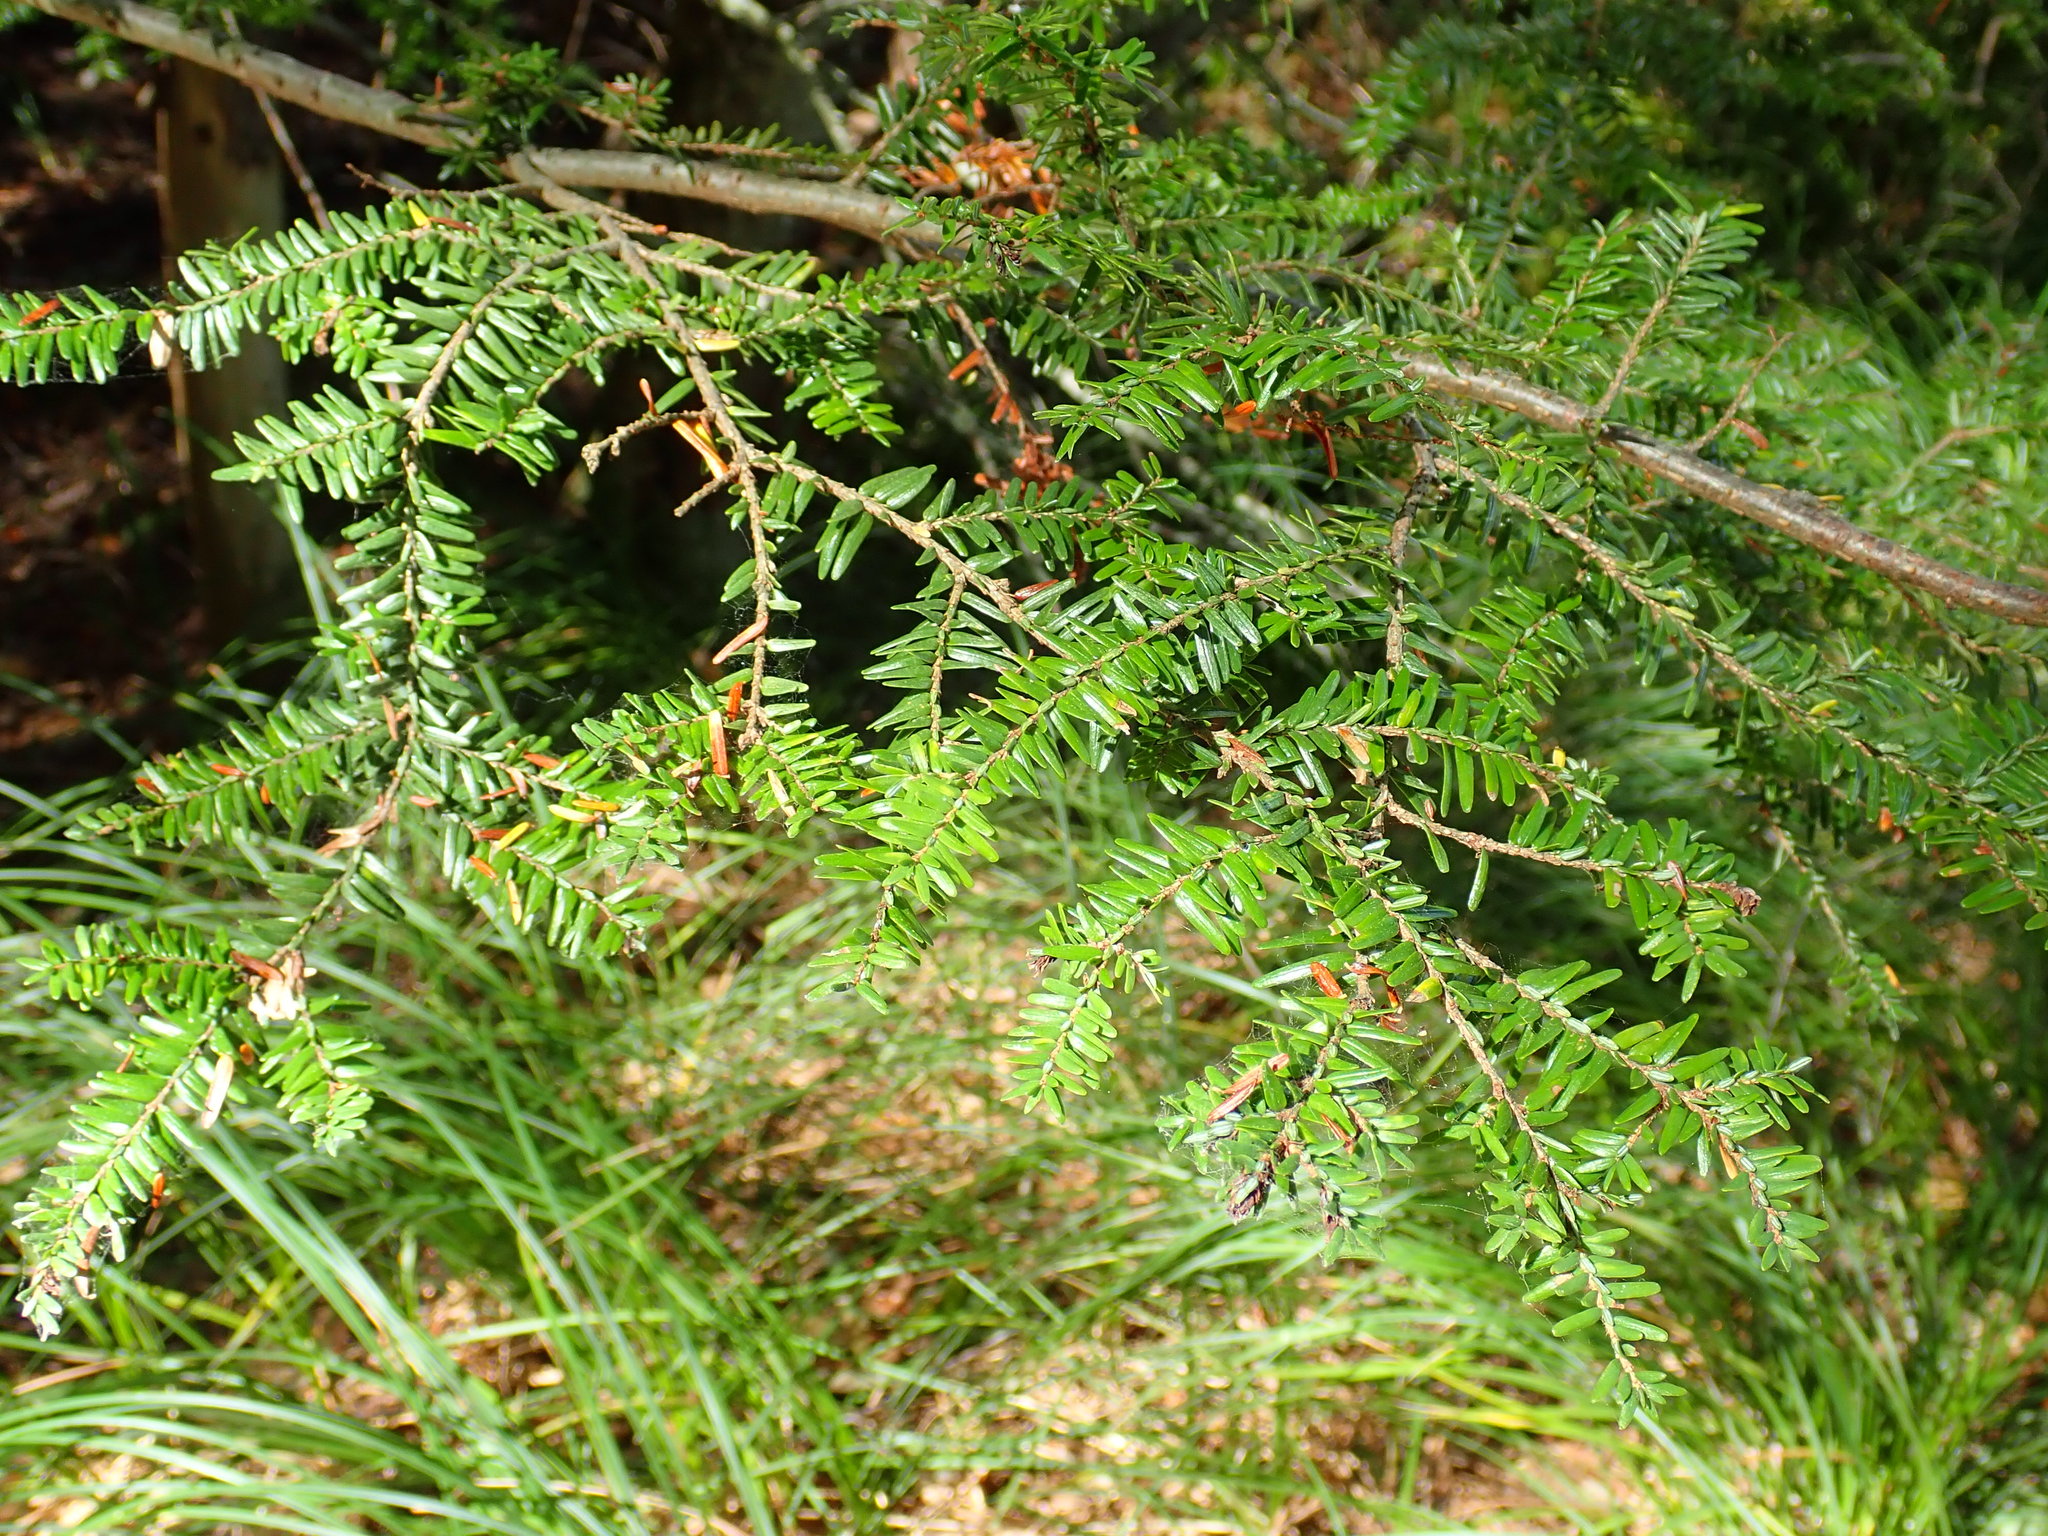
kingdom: Plantae
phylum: Tracheophyta
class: Pinopsida
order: Pinales
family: Pinaceae
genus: Tsuga
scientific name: Tsuga canadensis
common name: Eastern hemlock
